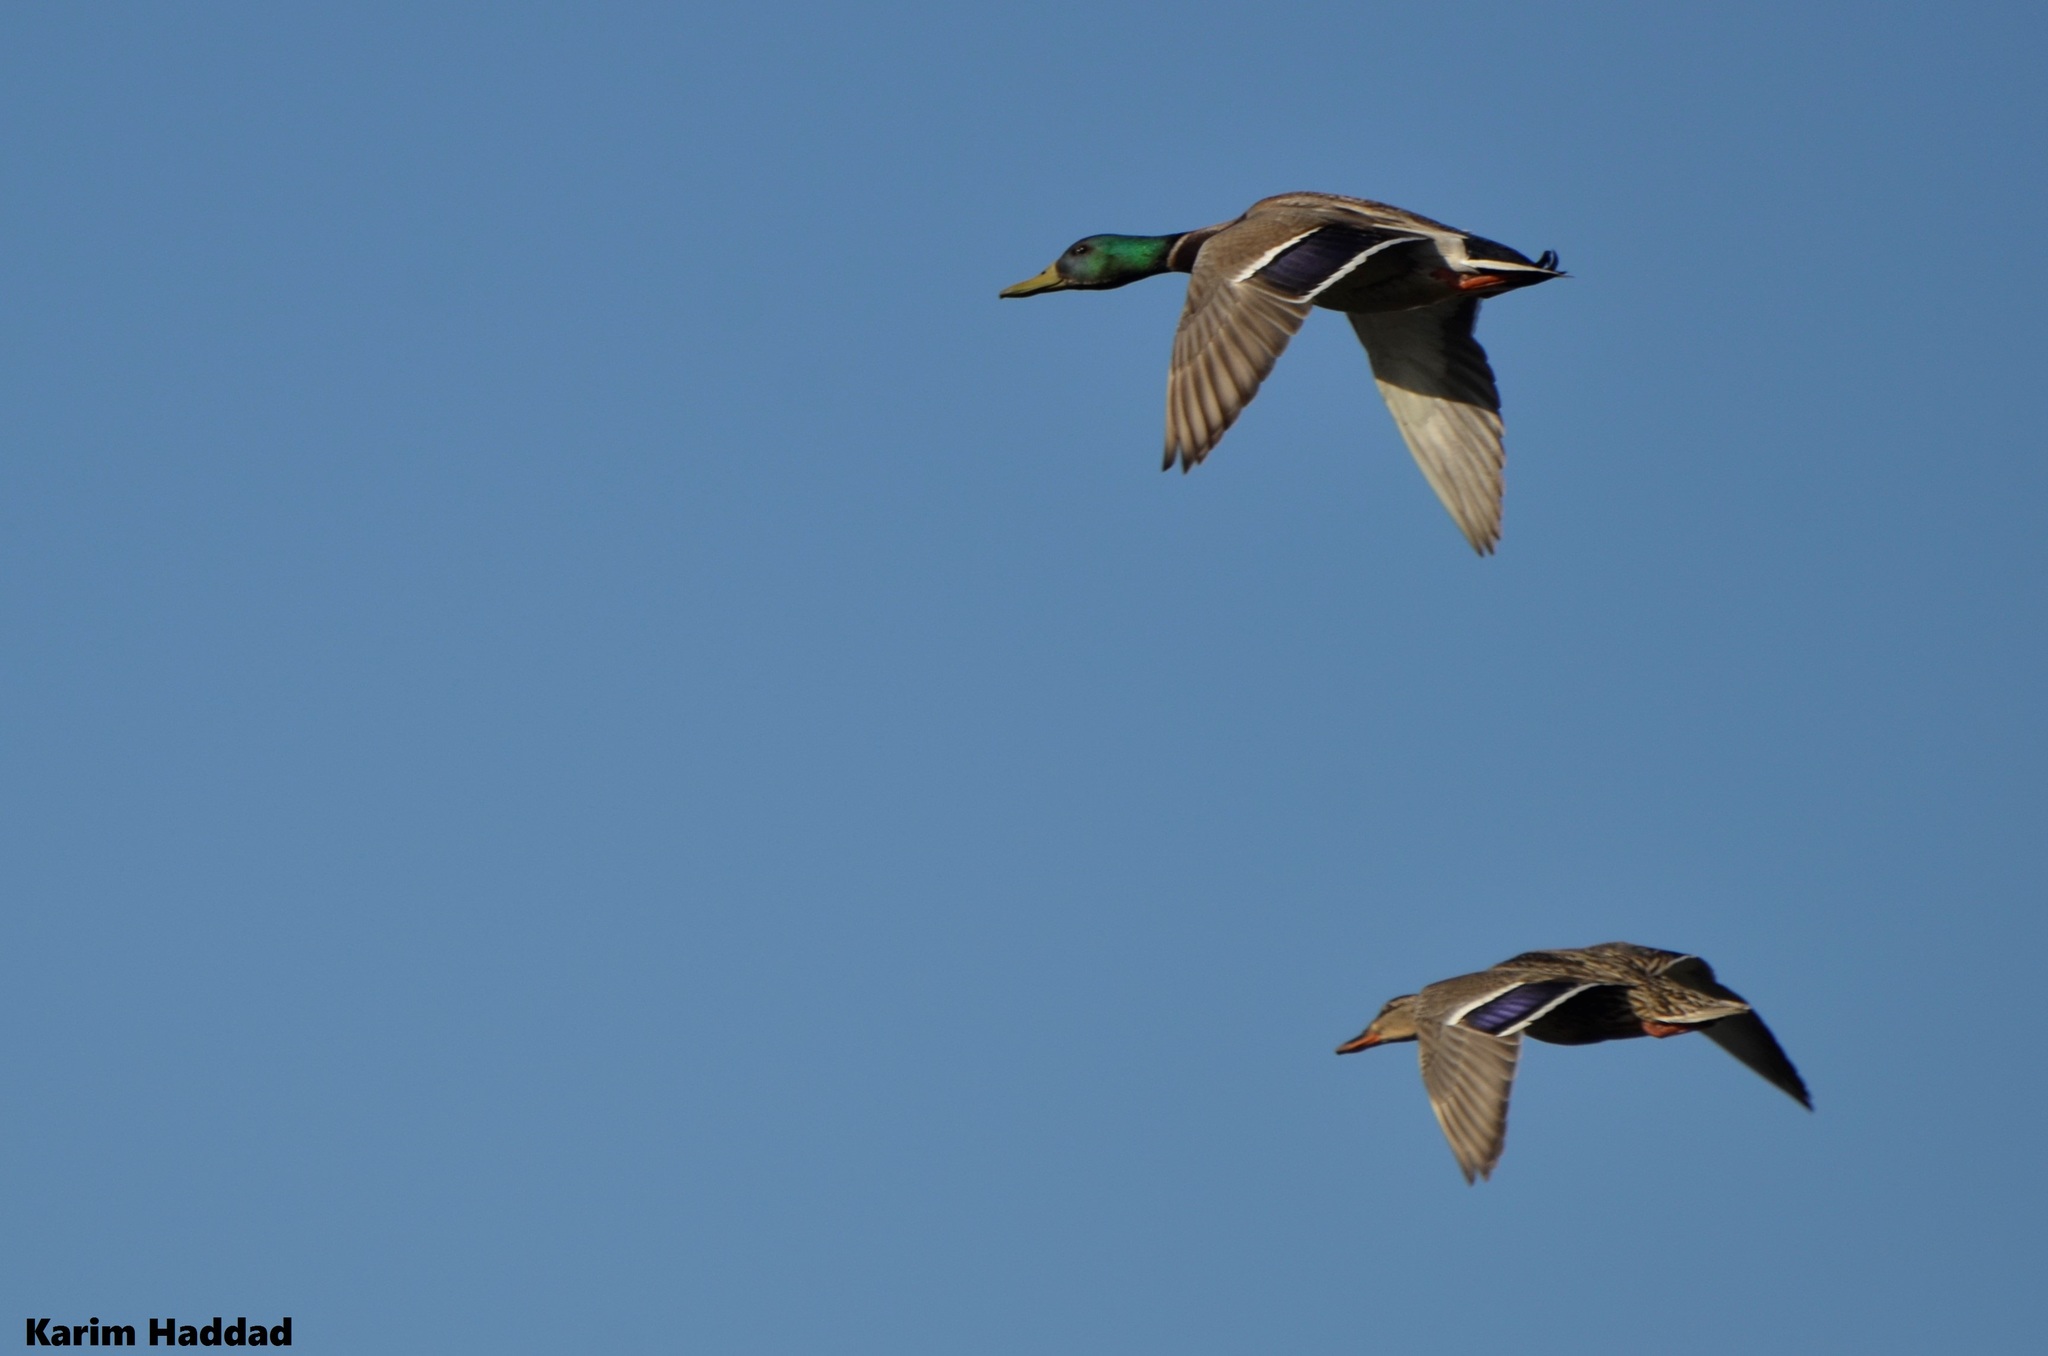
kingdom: Animalia
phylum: Chordata
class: Aves
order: Anseriformes
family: Anatidae
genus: Anas
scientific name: Anas platyrhynchos
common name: Mallard
